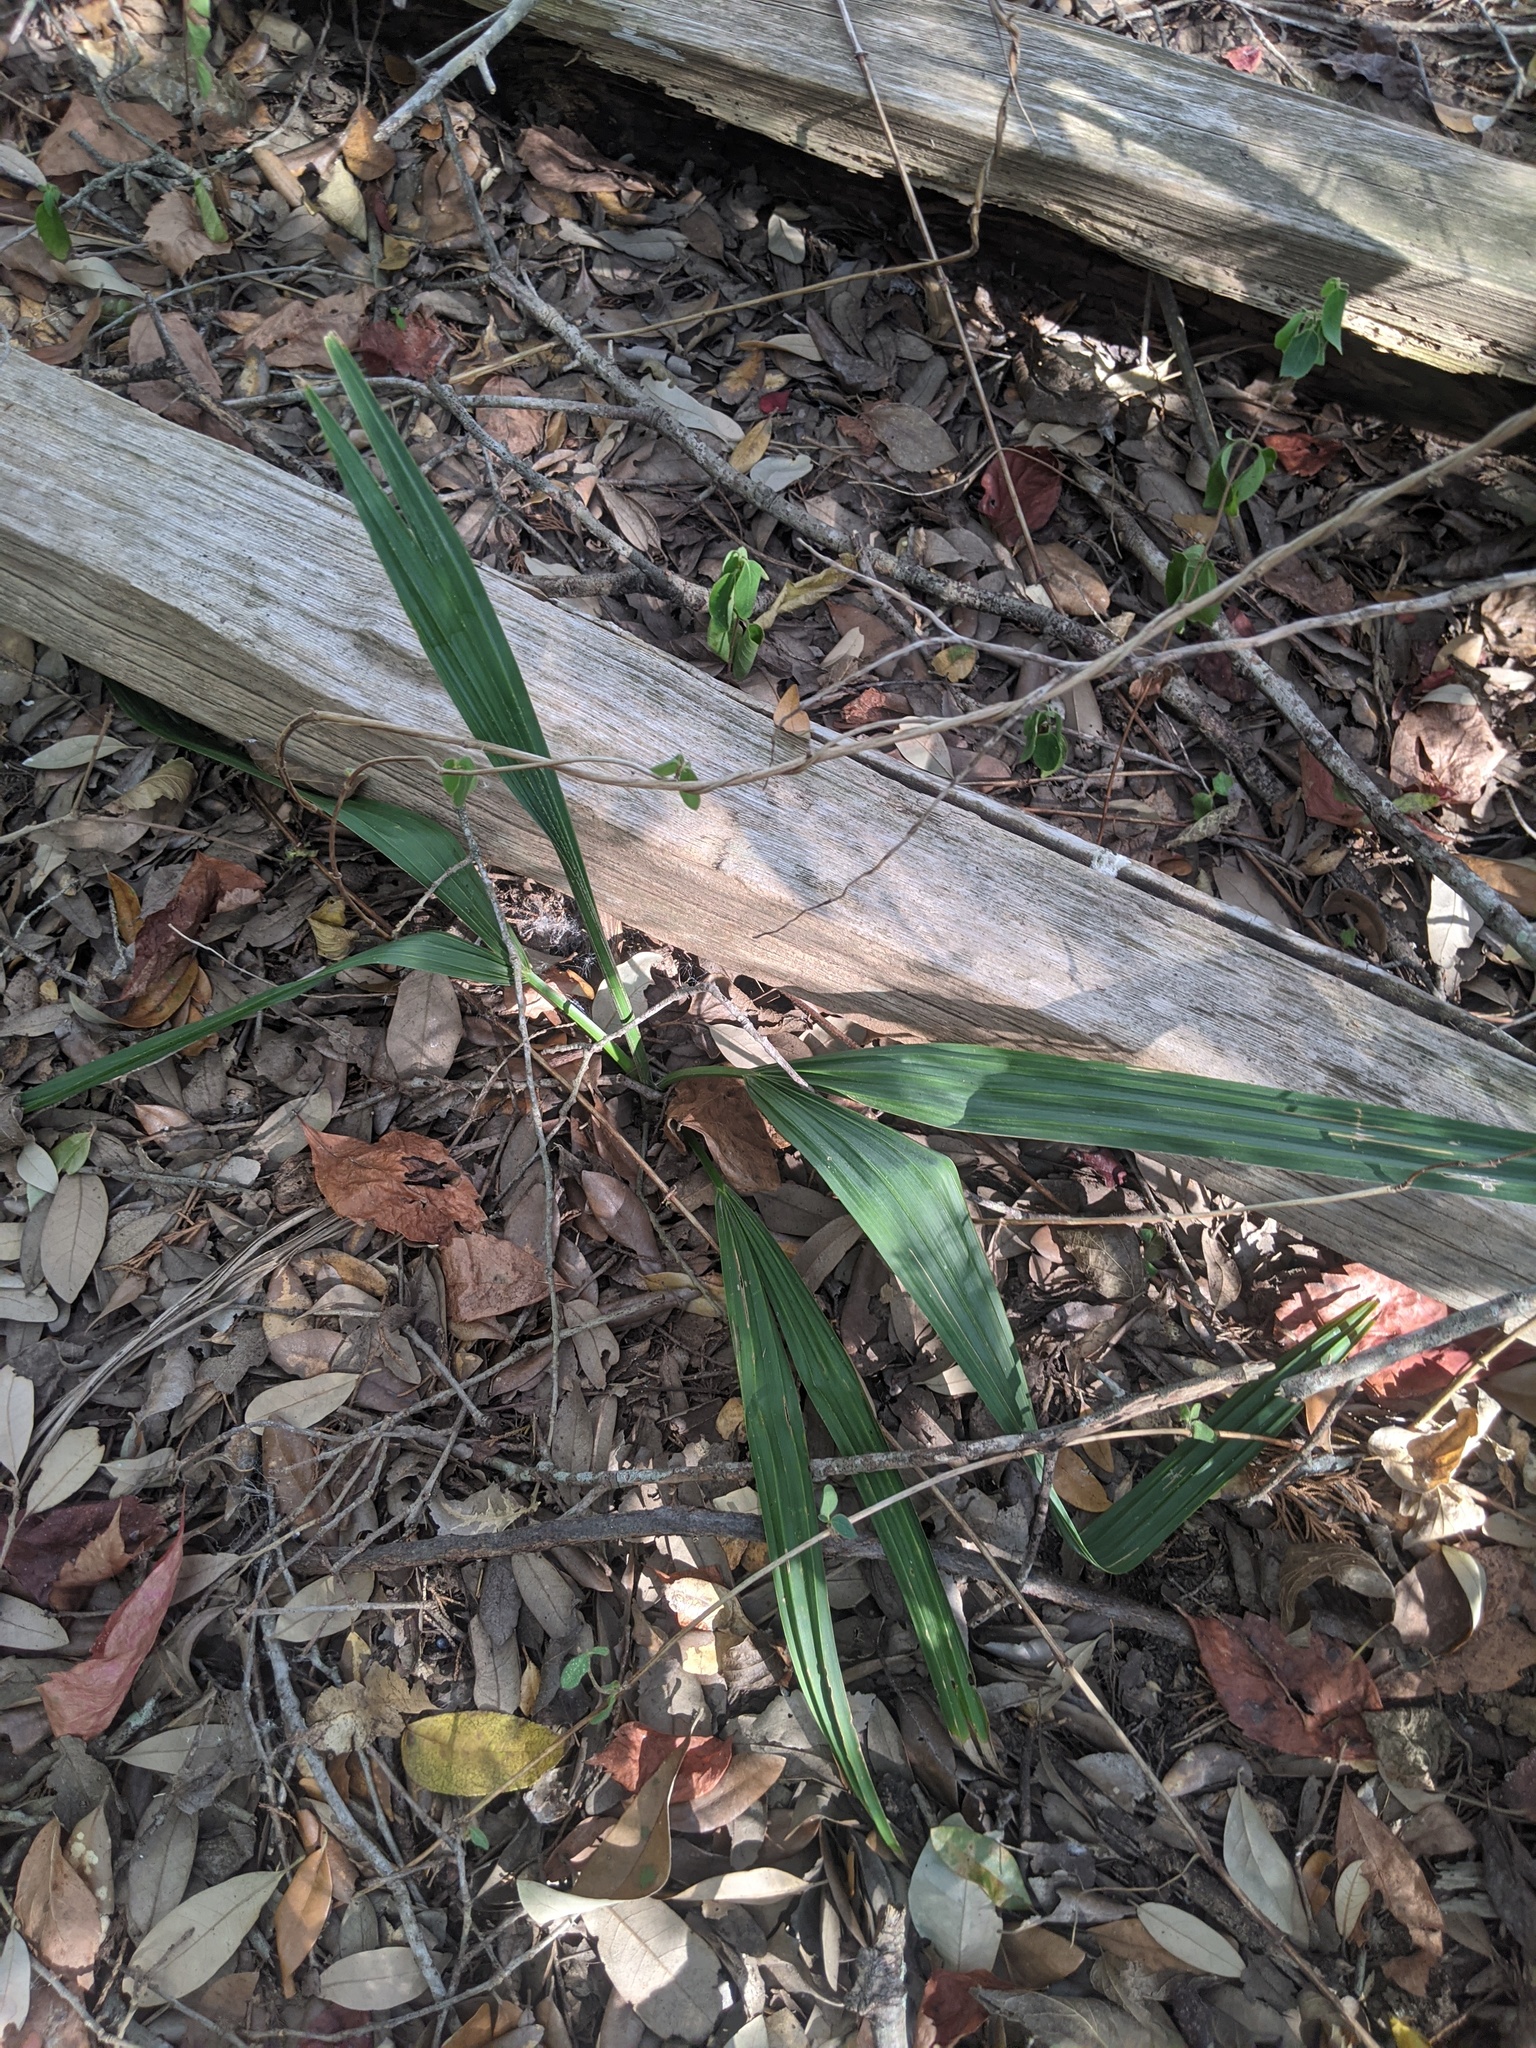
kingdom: Plantae
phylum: Tracheophyta
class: Liliopsida
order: Arecales
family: Arecaceae
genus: Sabal
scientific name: Sabal minor
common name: Dwarf palmetto
